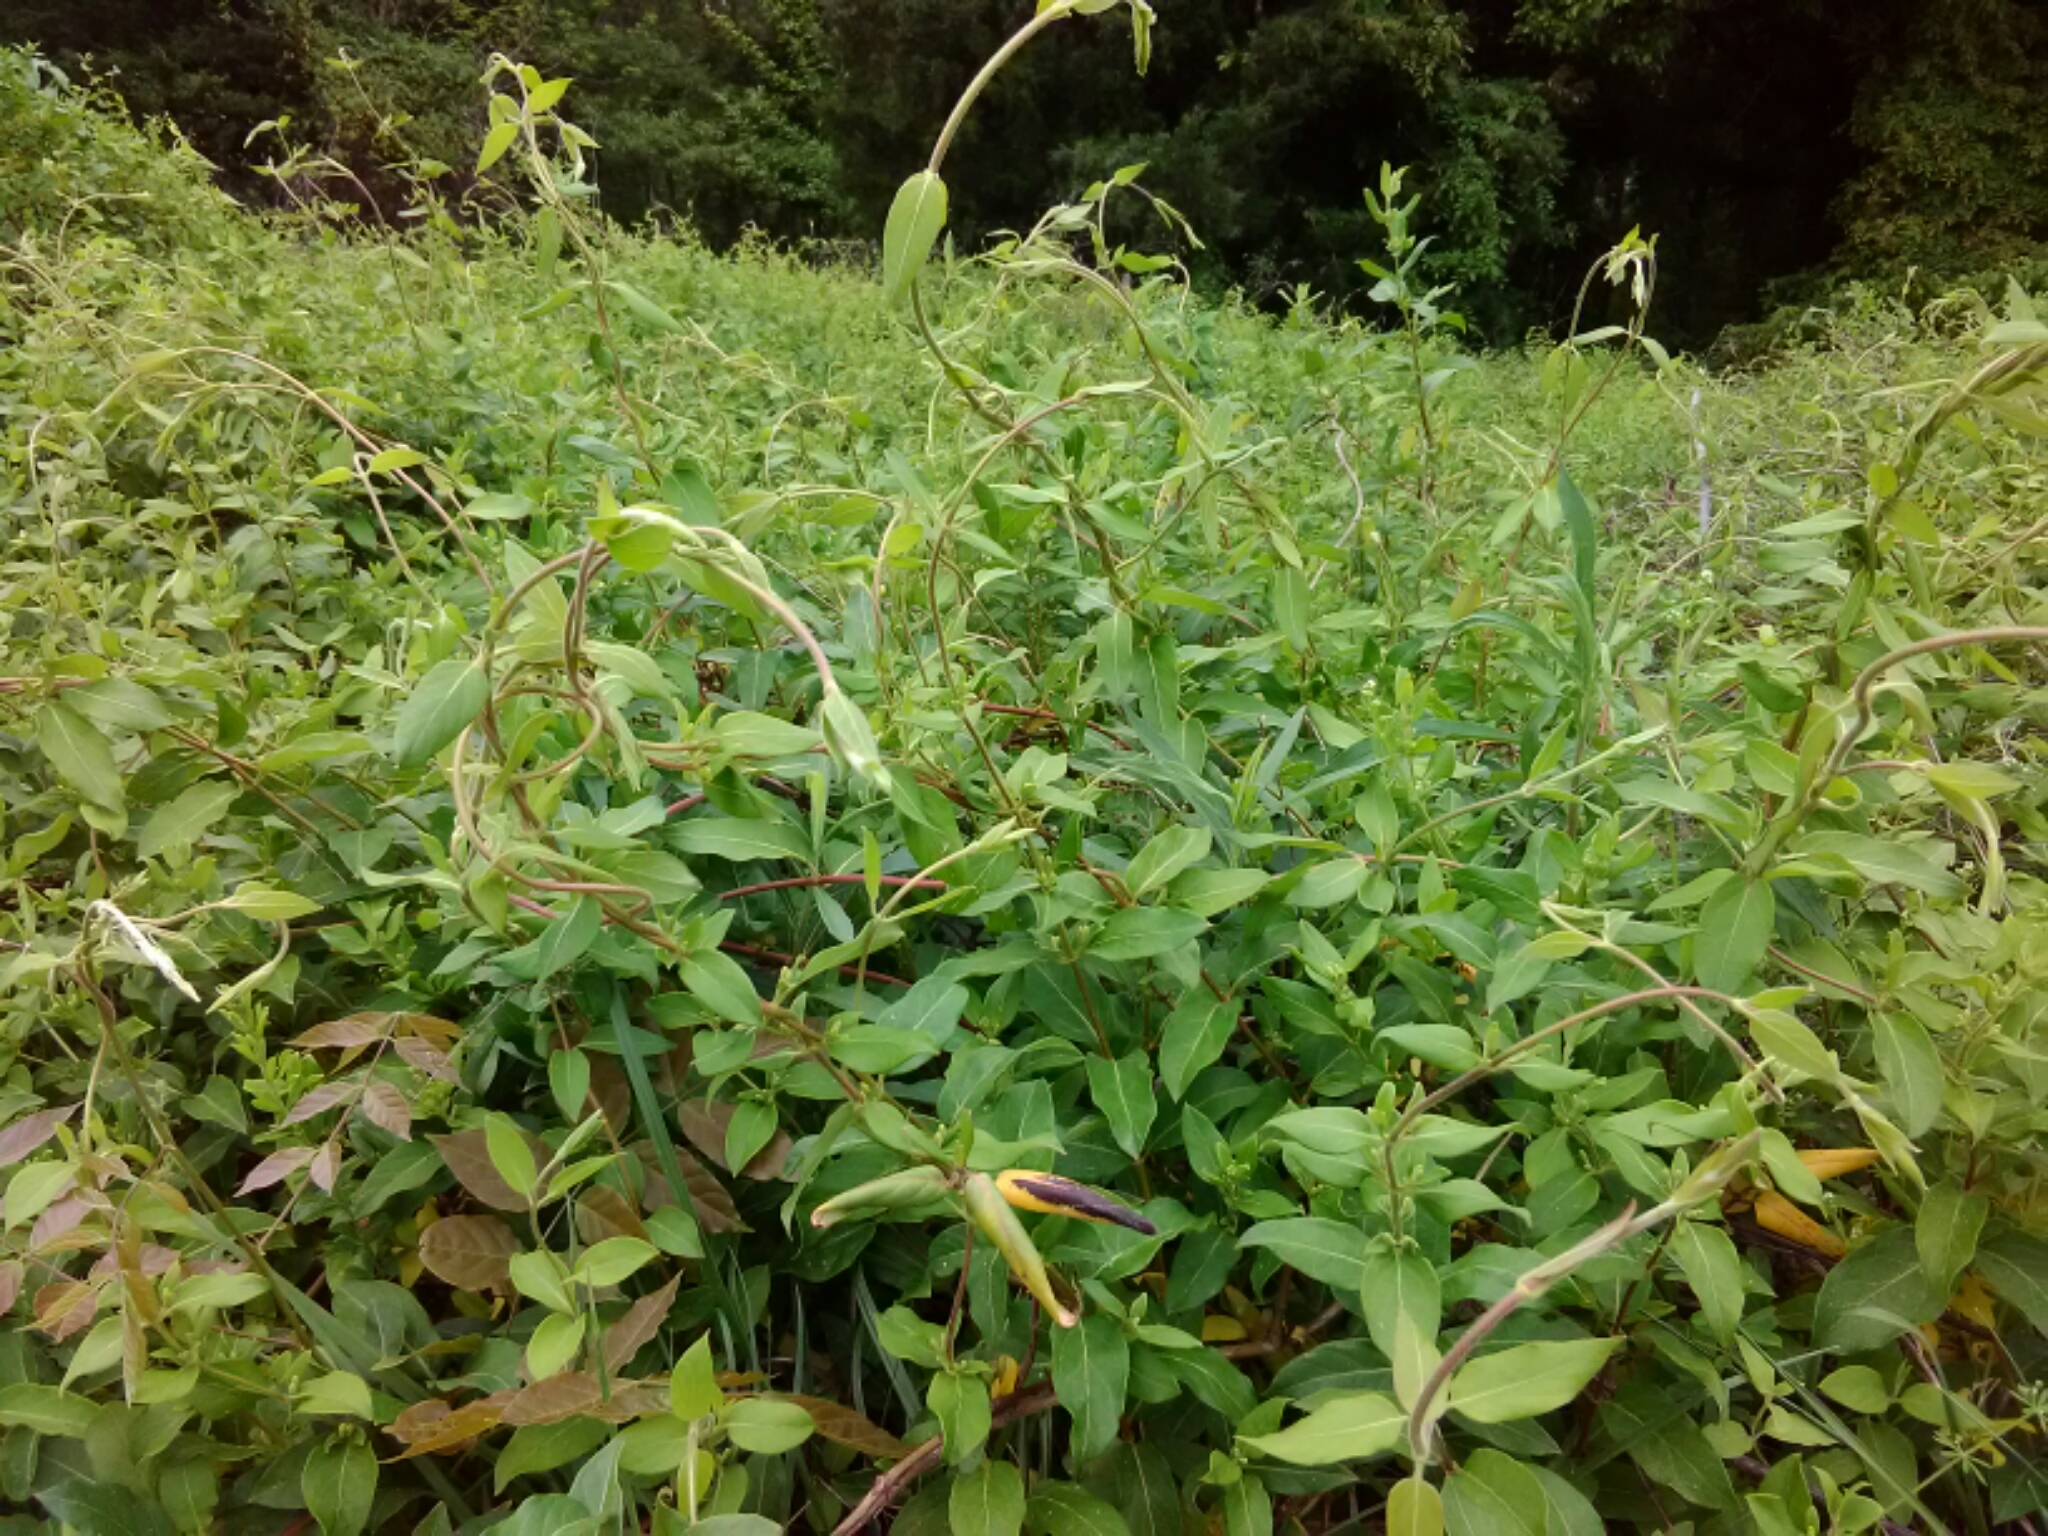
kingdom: Plantae
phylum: Tracheophyta
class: Magnoliopsida
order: Dipsacales
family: Caprifoliaceae
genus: Lonicera
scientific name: Lonicera japonica
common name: Japanese honeysuckle
